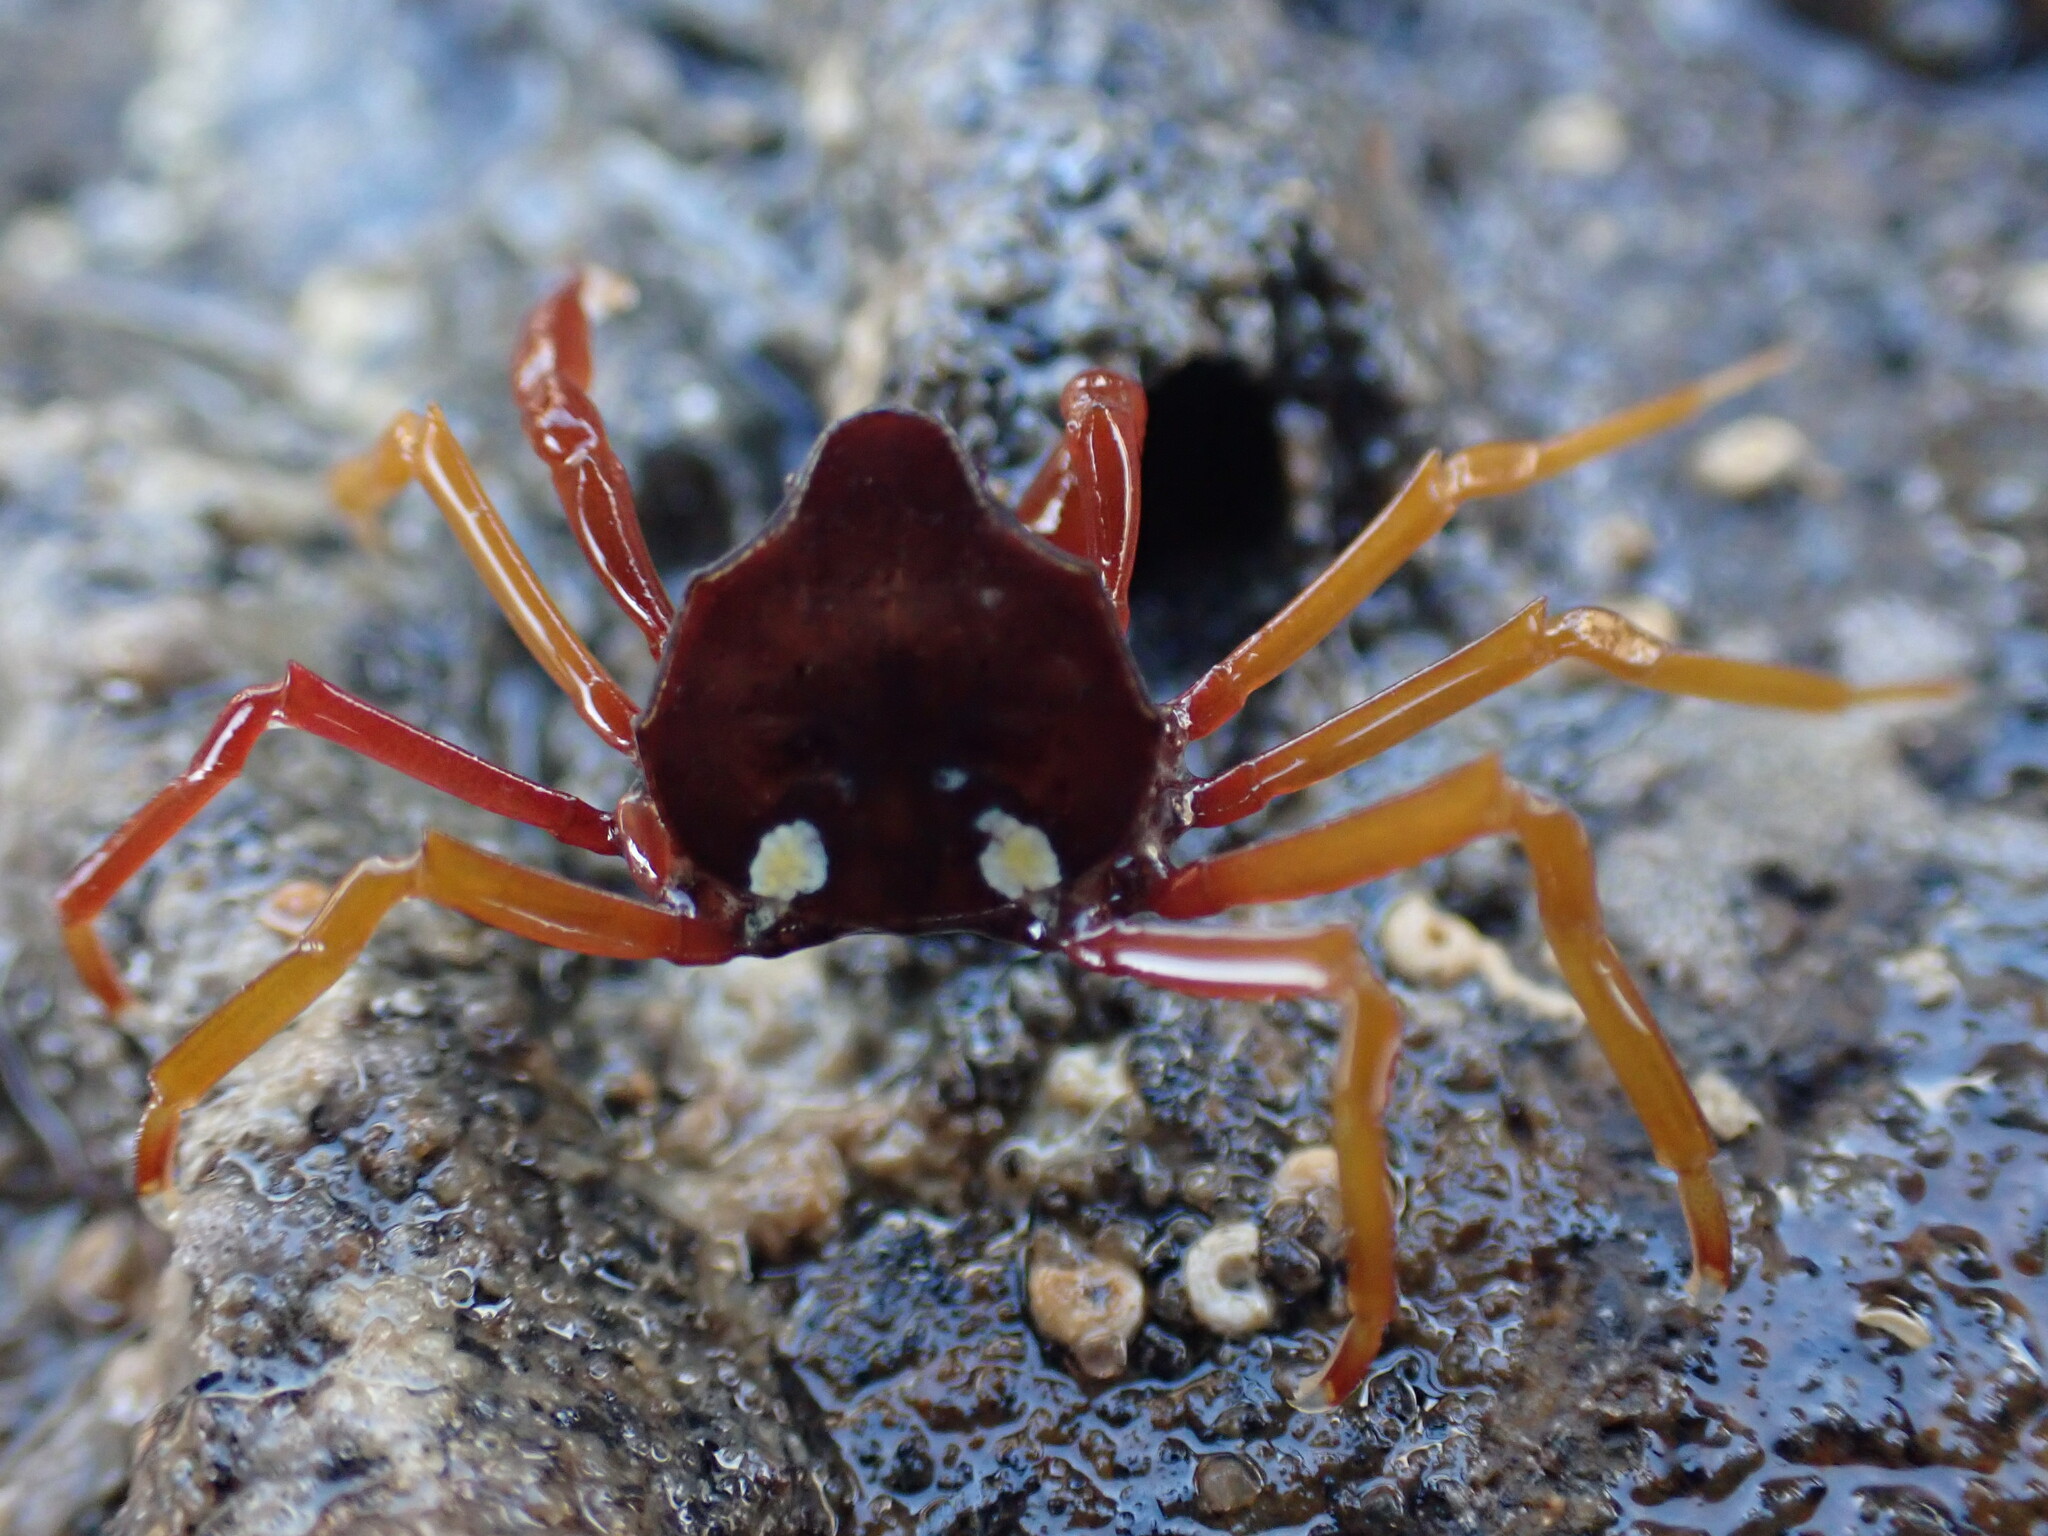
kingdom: Animalia
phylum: Arthropoda
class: Malacostraca
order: Decapoda
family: Hymenosomatidae
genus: Elamena
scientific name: Elamena producta
